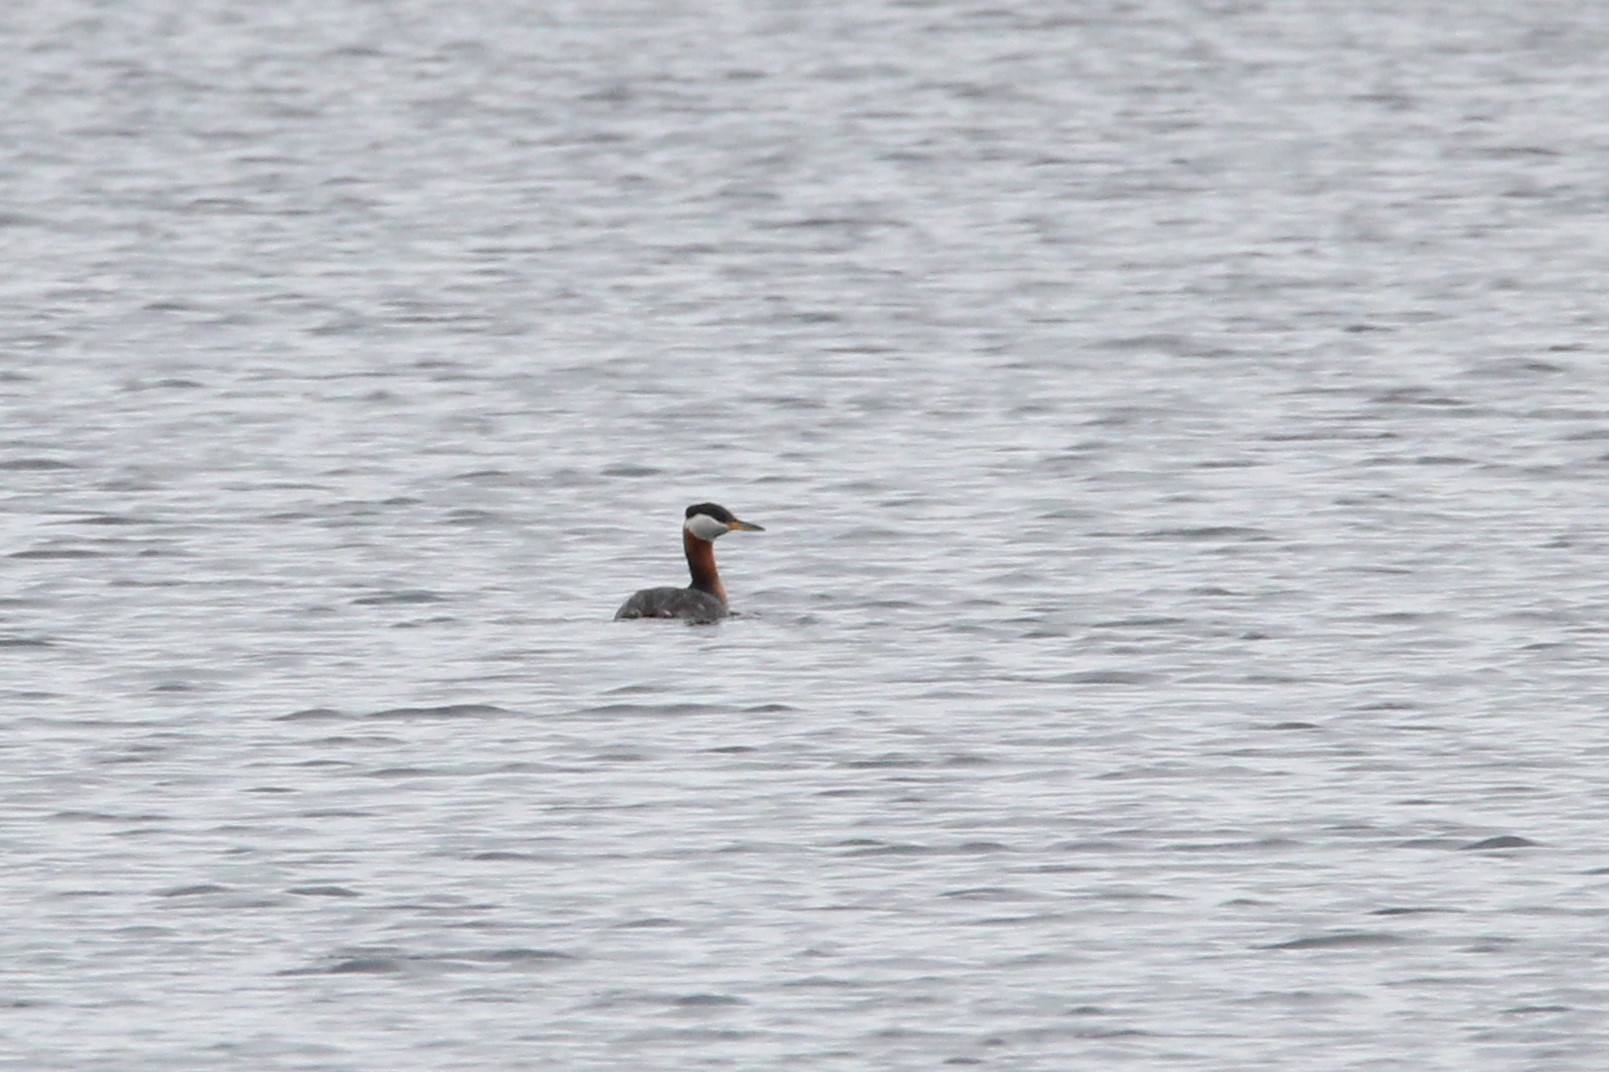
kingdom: Animalia
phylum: Chordata
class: Aves
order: Podicipediformes
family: Podicipedidae
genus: Podiceps
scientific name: Podiceps grisegena
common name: Red-necked grebe
